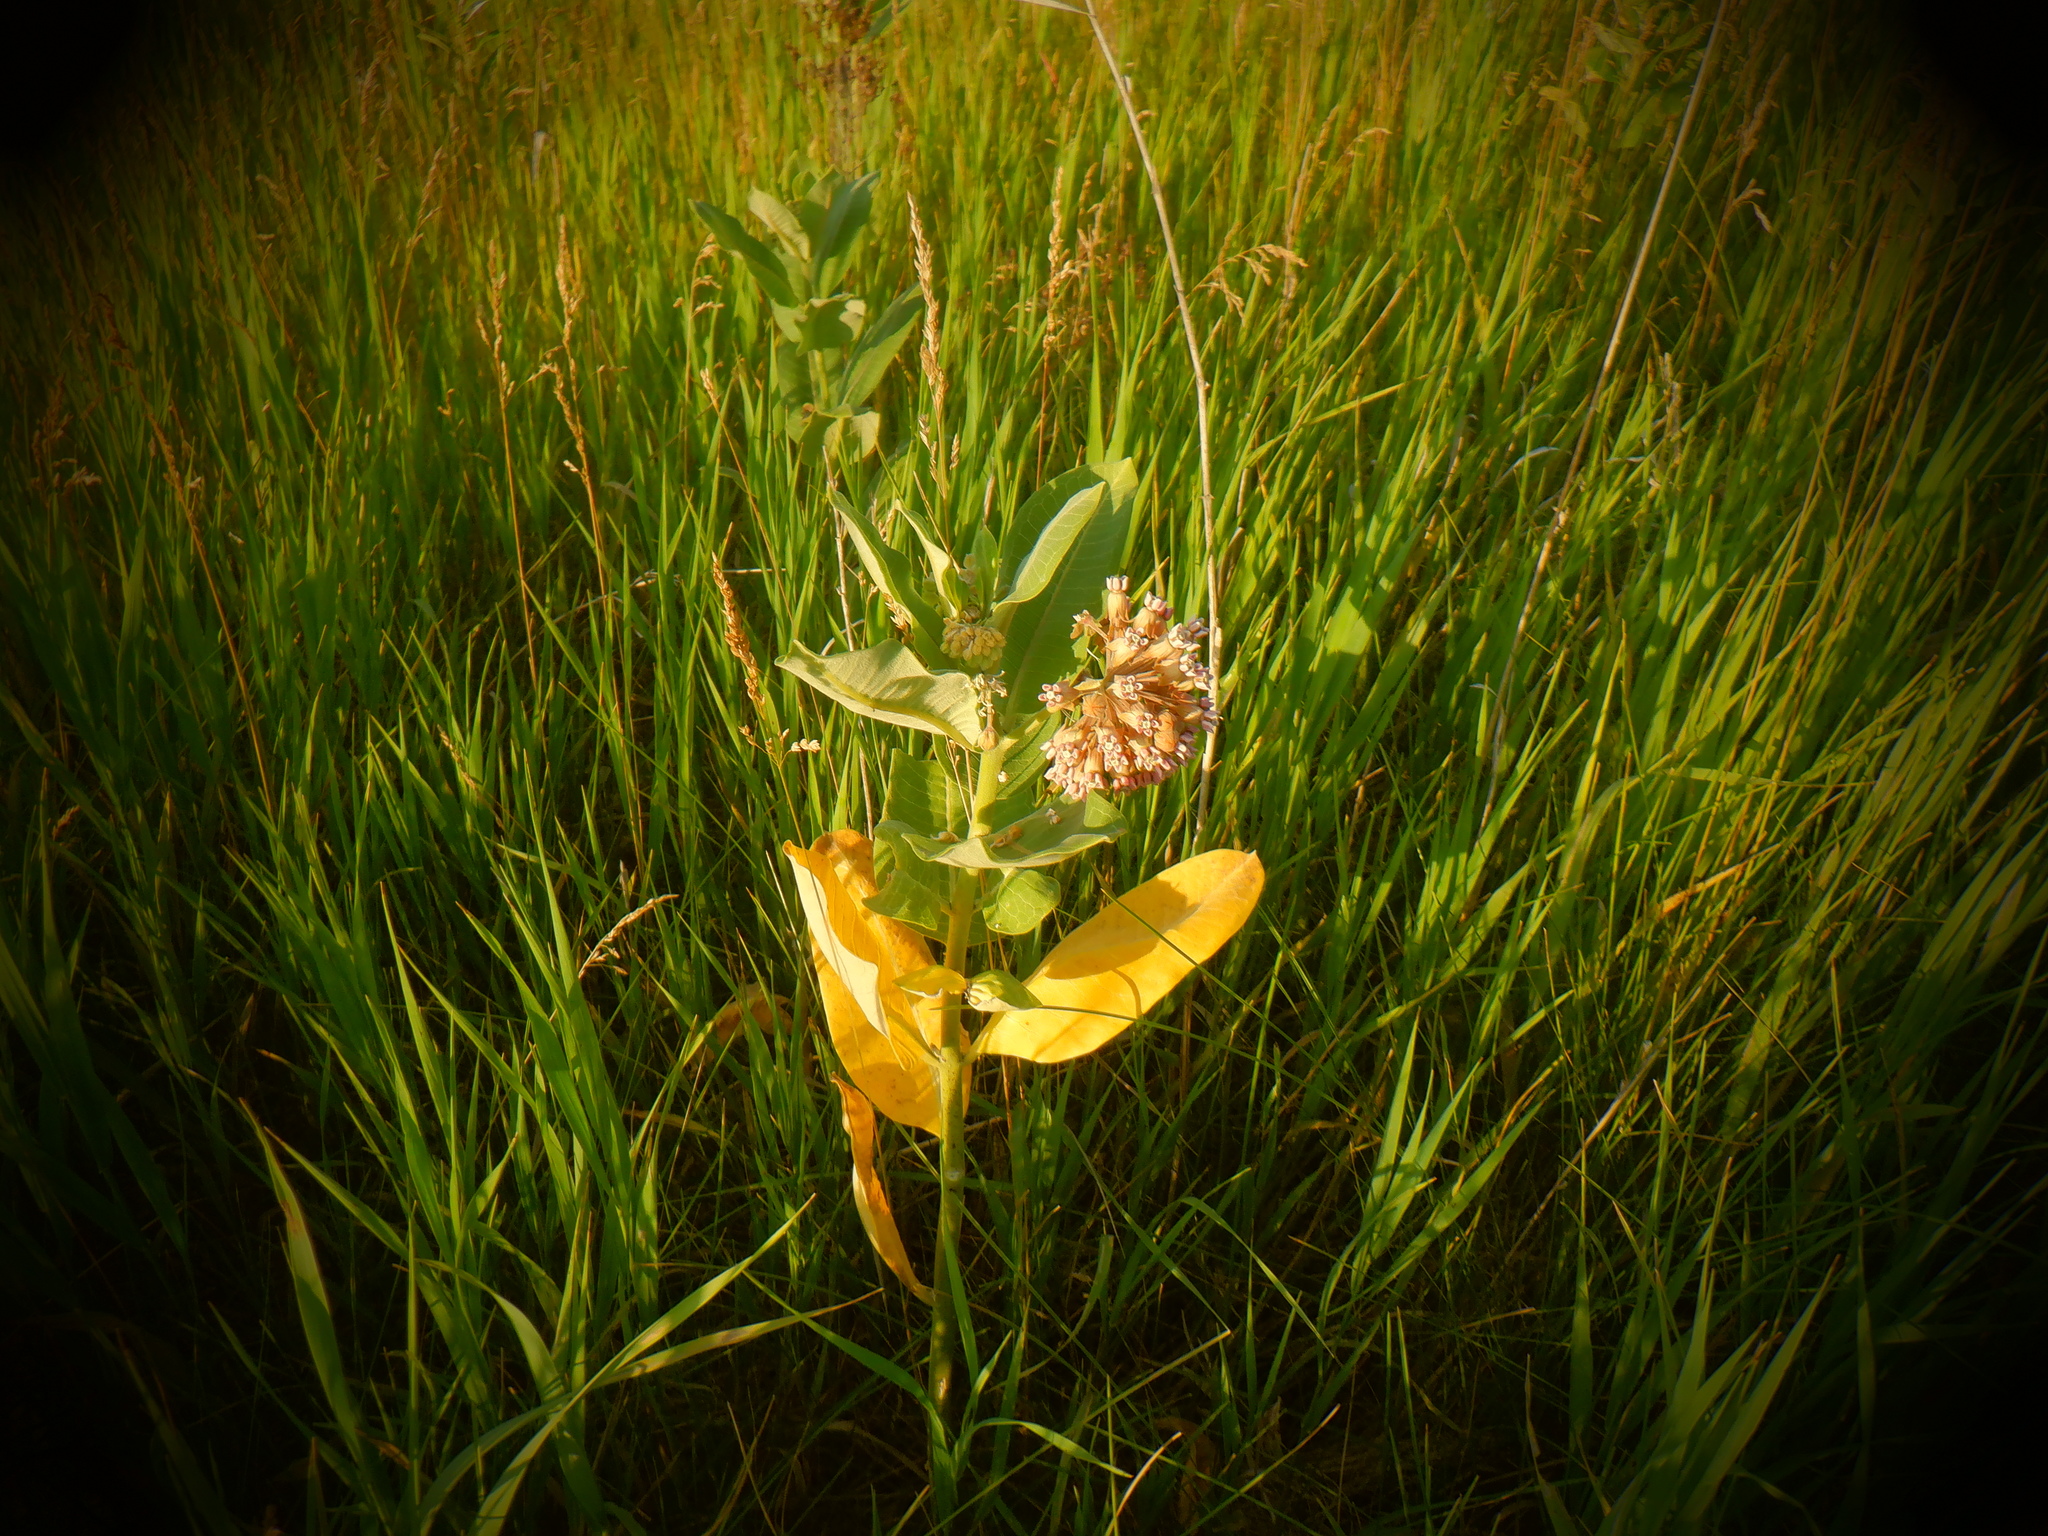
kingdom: Plantae
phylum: Tracheophyta
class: Magnoliopsida
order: Gentianales
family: Apocynaceae
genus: Asclepias
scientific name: Asclepias syriaca
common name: Common milkweed
